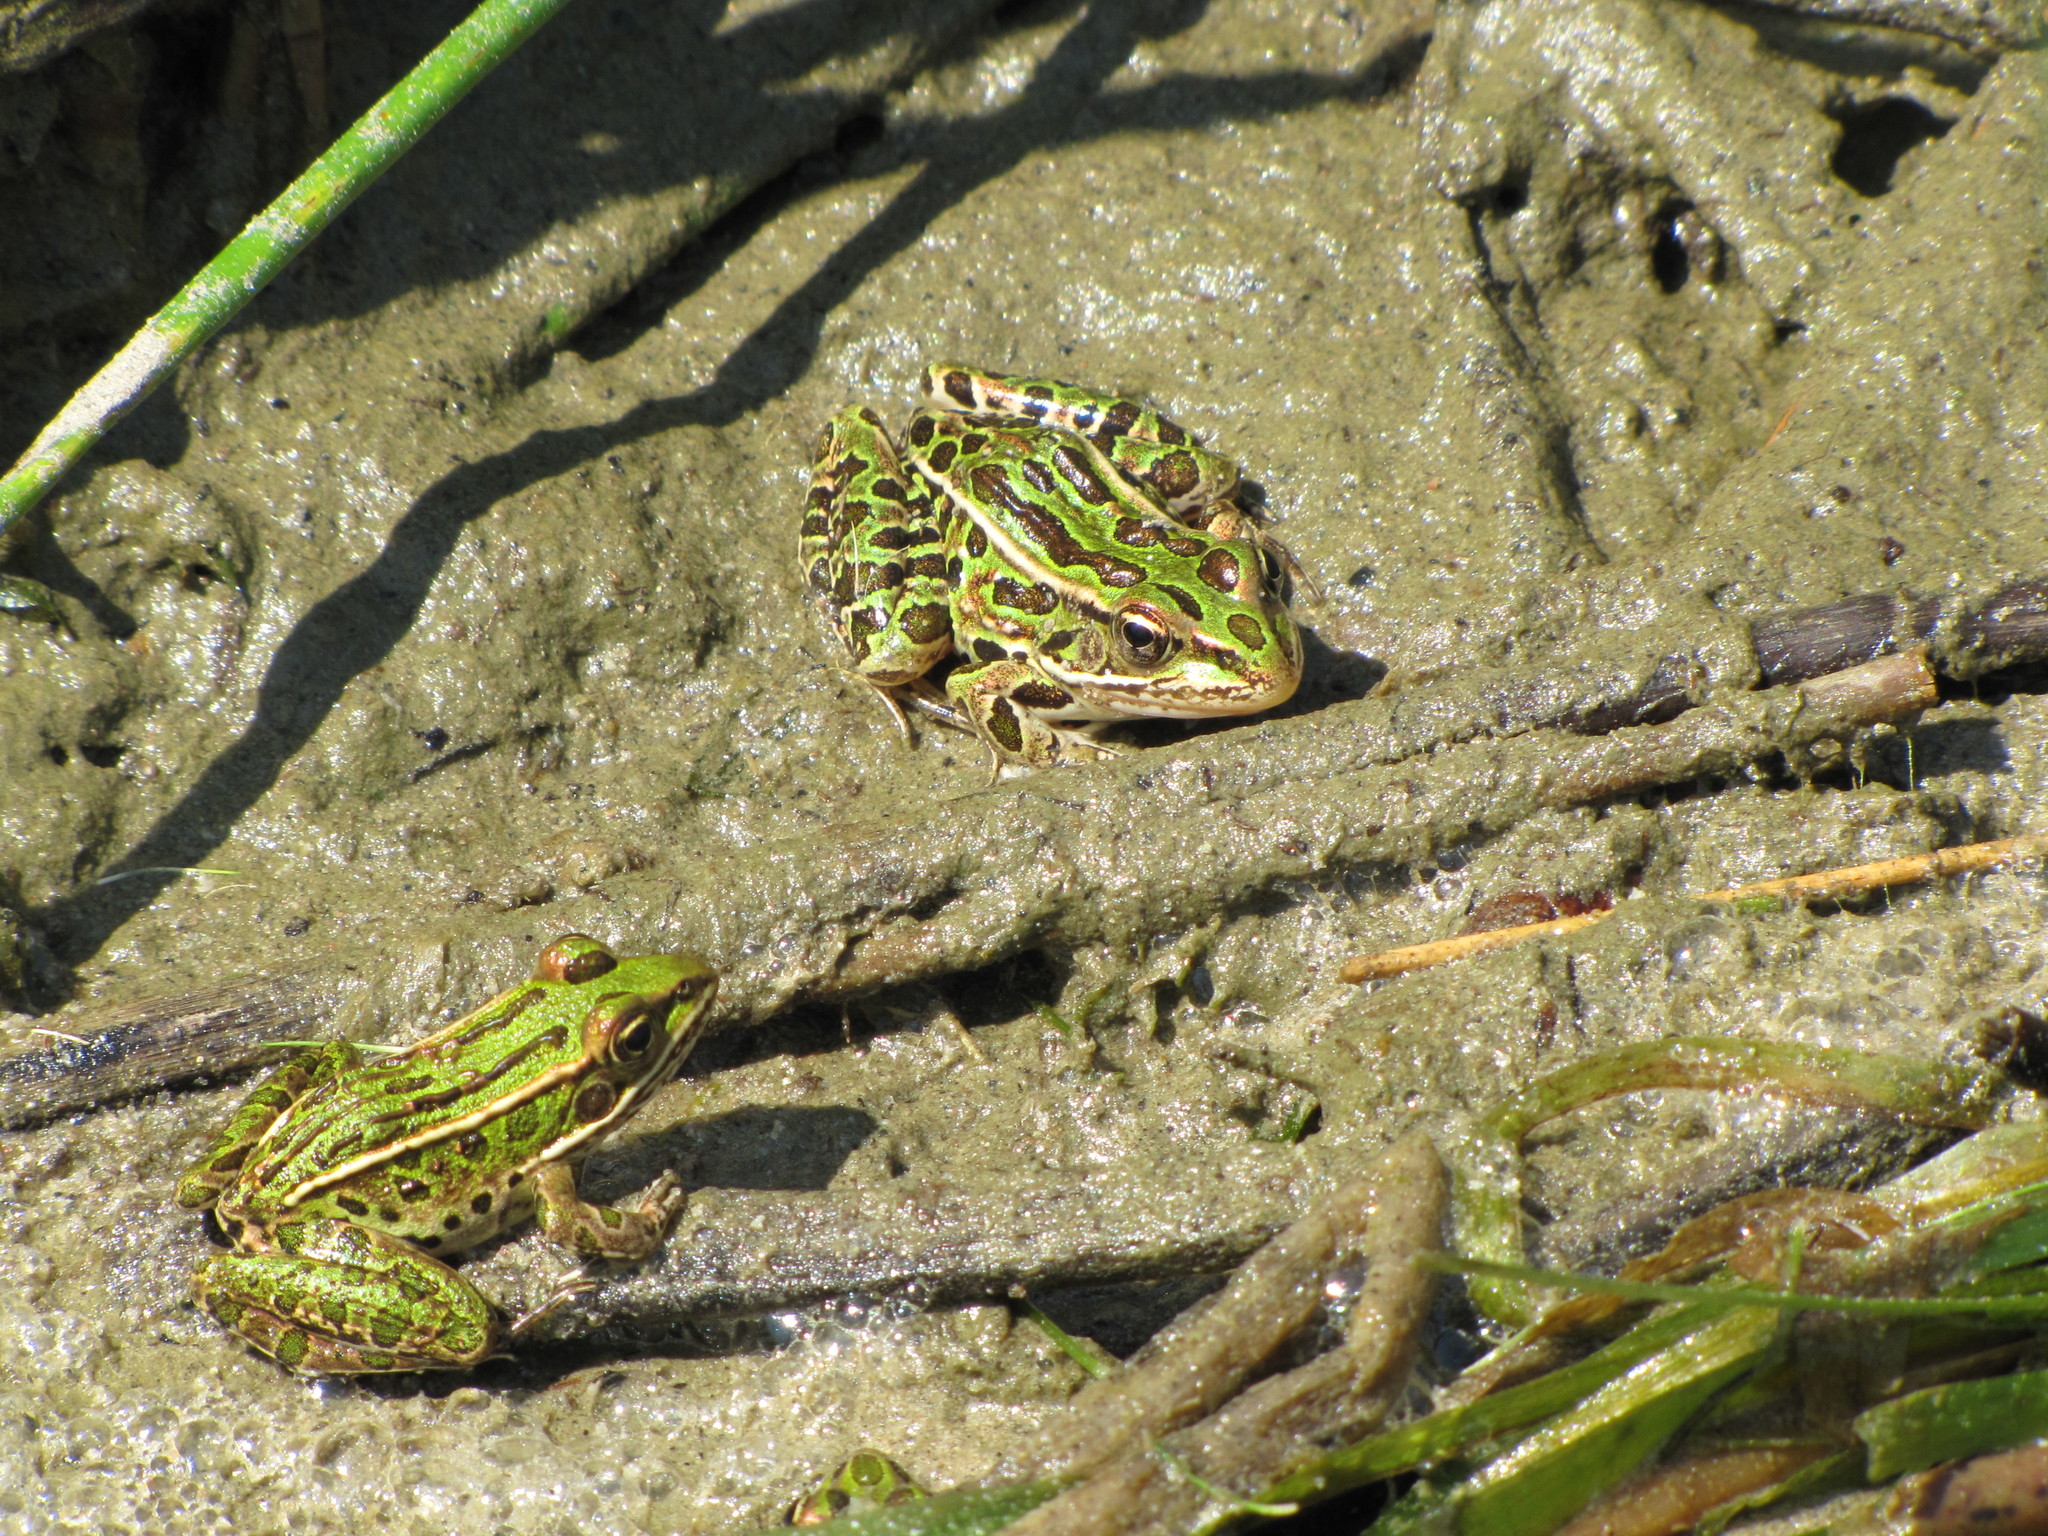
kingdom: Animalia
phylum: Chordata
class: Amphibia
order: Anura
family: Ranidae
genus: Lithobates
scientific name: Lithobates pipiens
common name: Northern leopard frog
